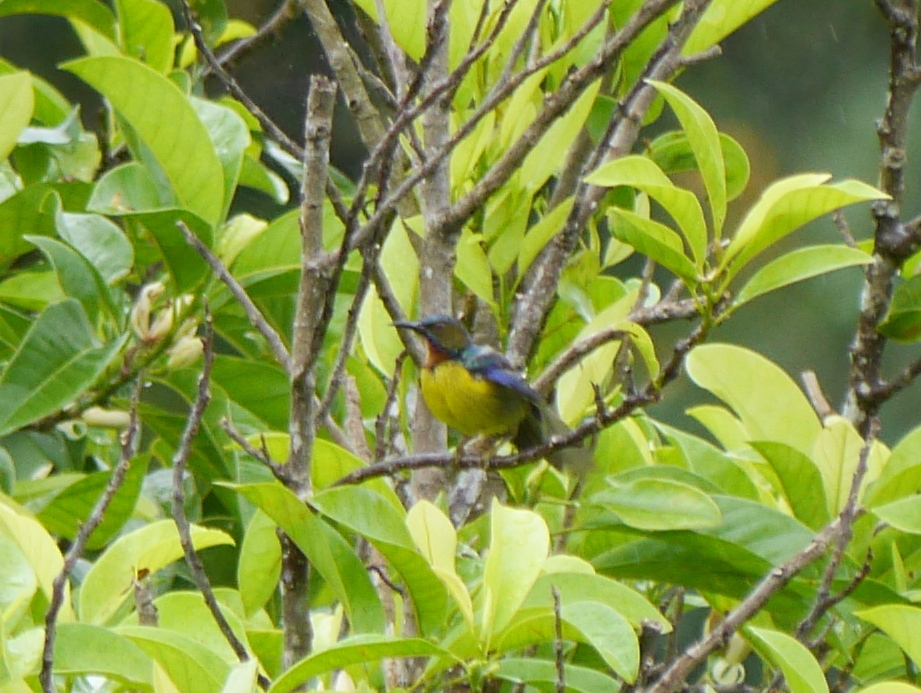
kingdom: Animalia
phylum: Chordata
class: Aves
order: Passeriformes
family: Nectariniidae
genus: Anthreptes
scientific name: Anthreptes malacensis
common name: Brown-throated sunbird
